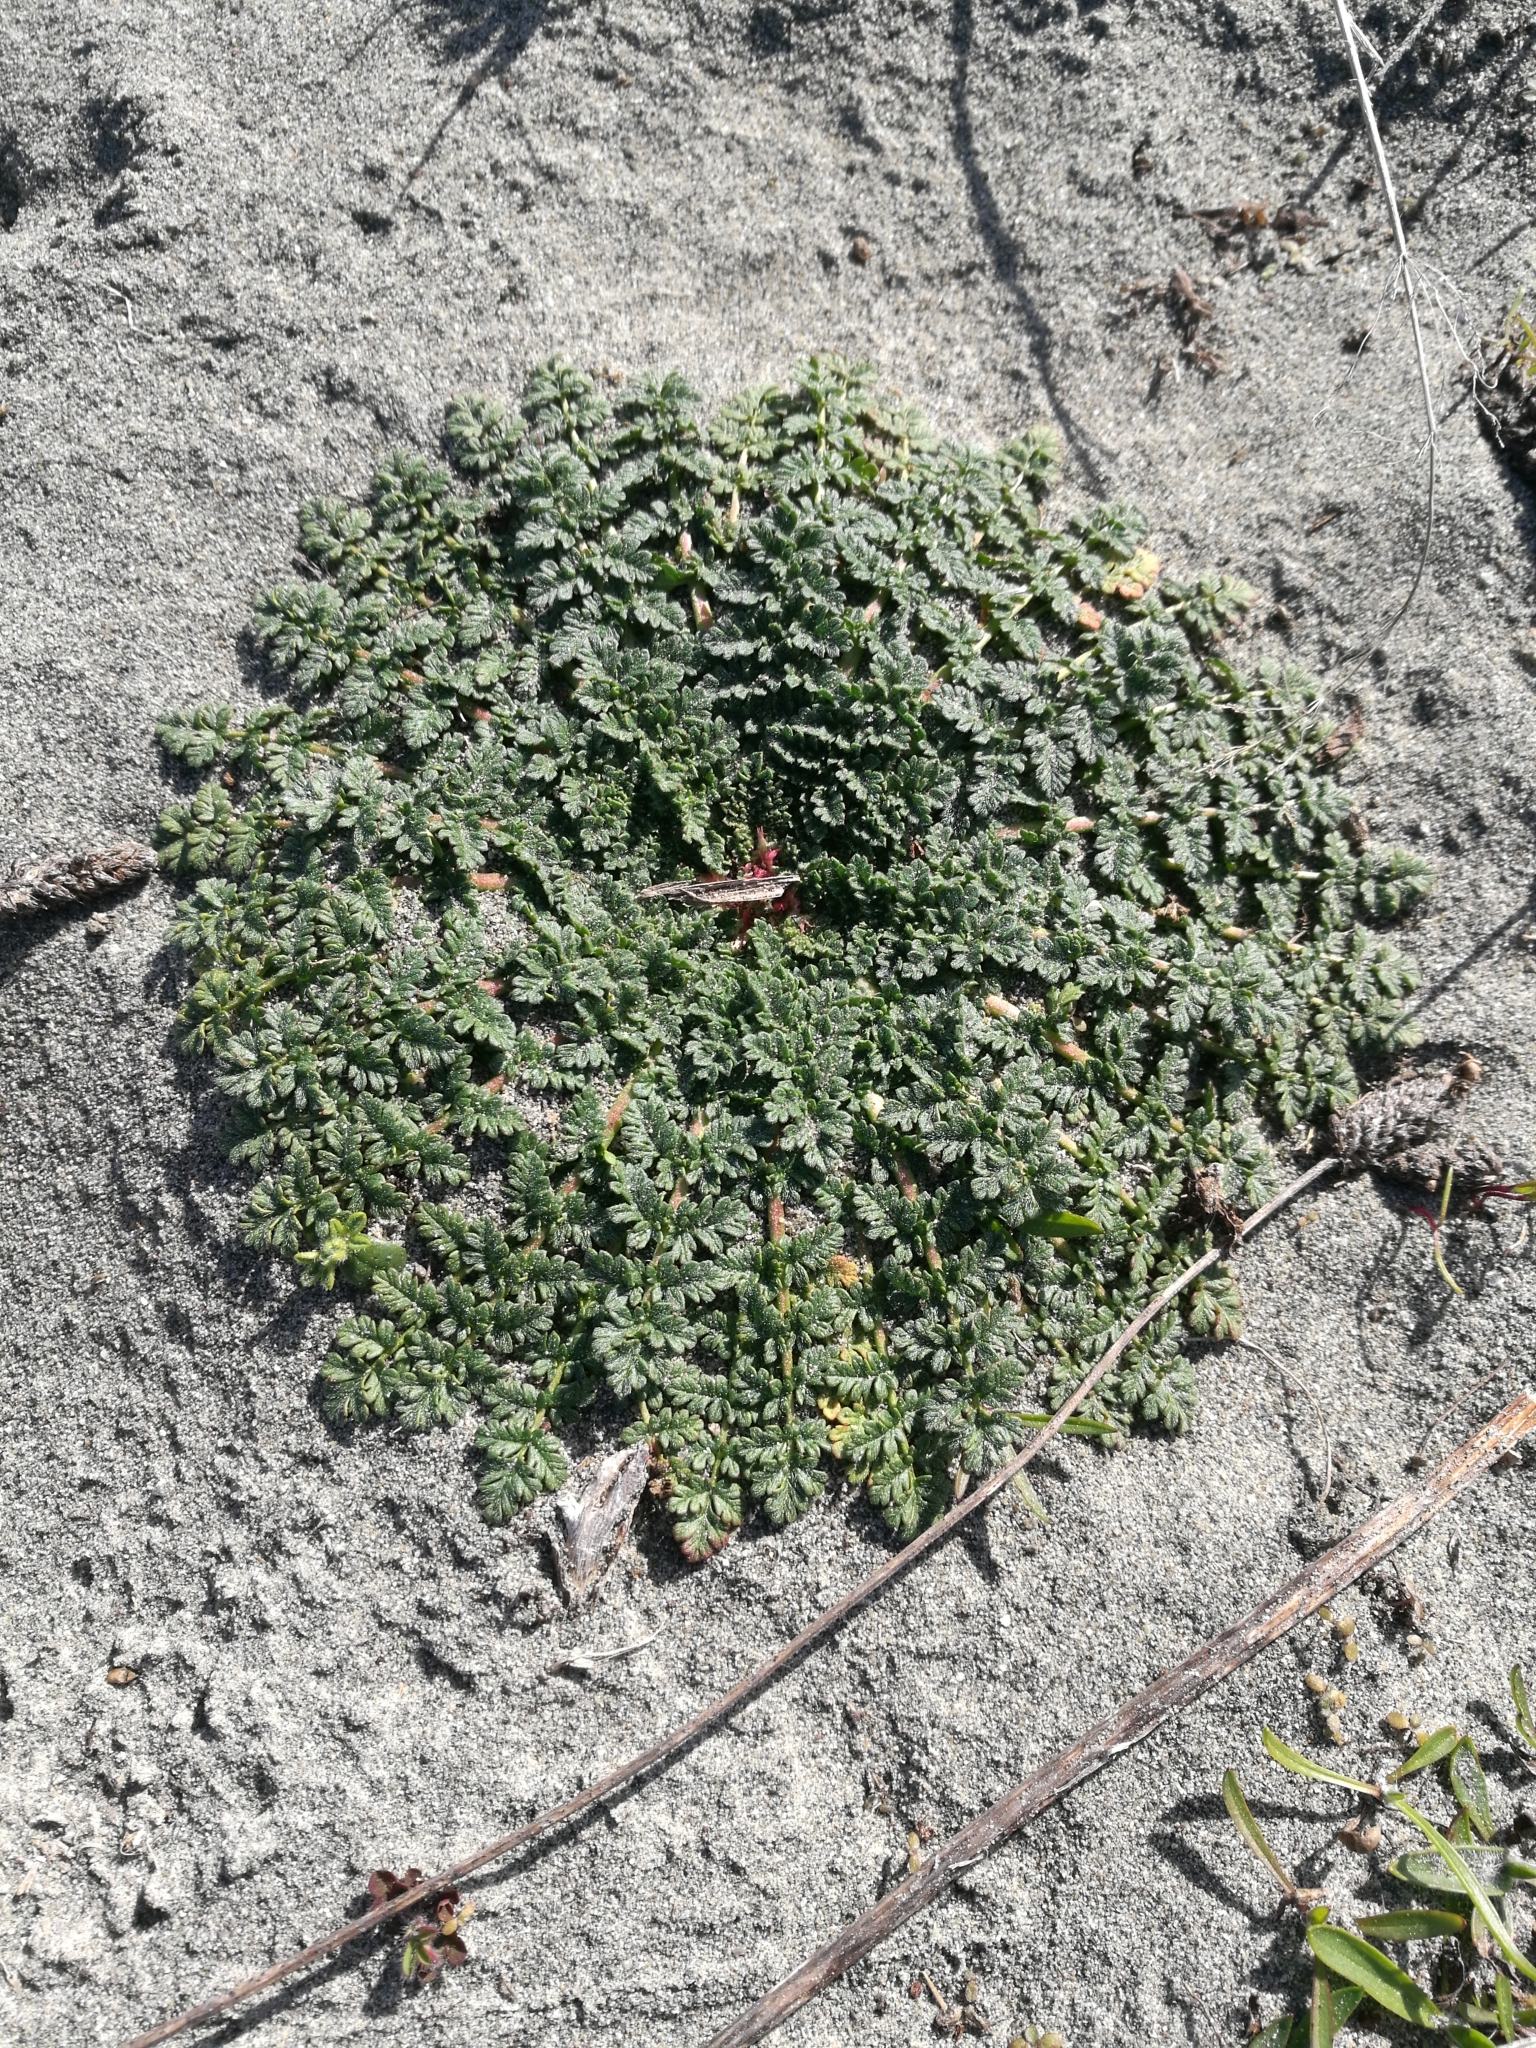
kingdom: Plantae
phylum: Tracheophyta
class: Magnoliopsida
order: Geraniales
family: Geraniaceae
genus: Erodium
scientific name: Erodium cicutarium
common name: Common stork's-bill
